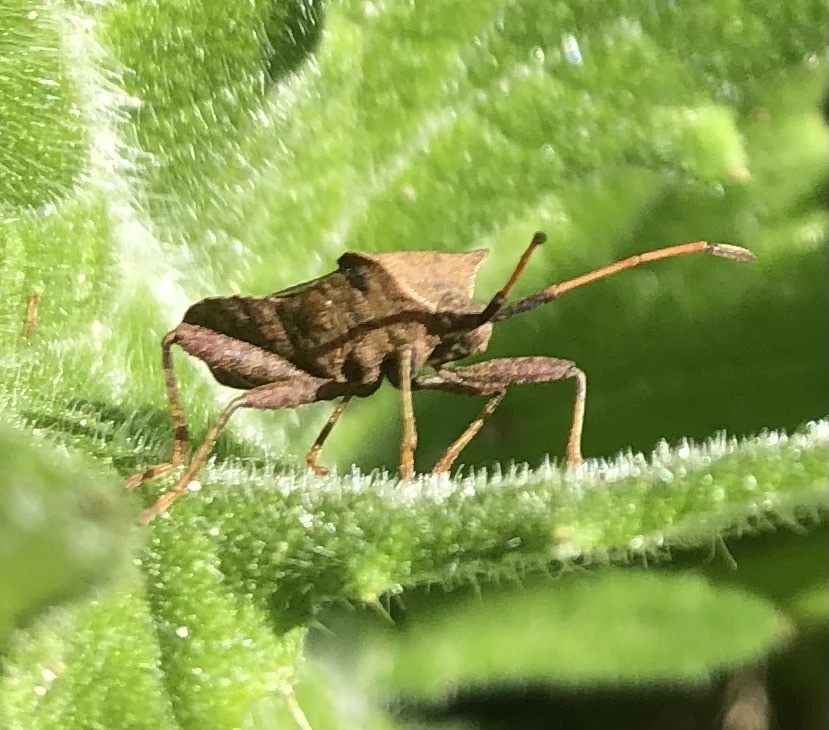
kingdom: Animalia
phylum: Arthropoda
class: Insecta
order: Hemiptera
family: Coreidae
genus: Coreus
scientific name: Coreus marginatus
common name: Dock bug
